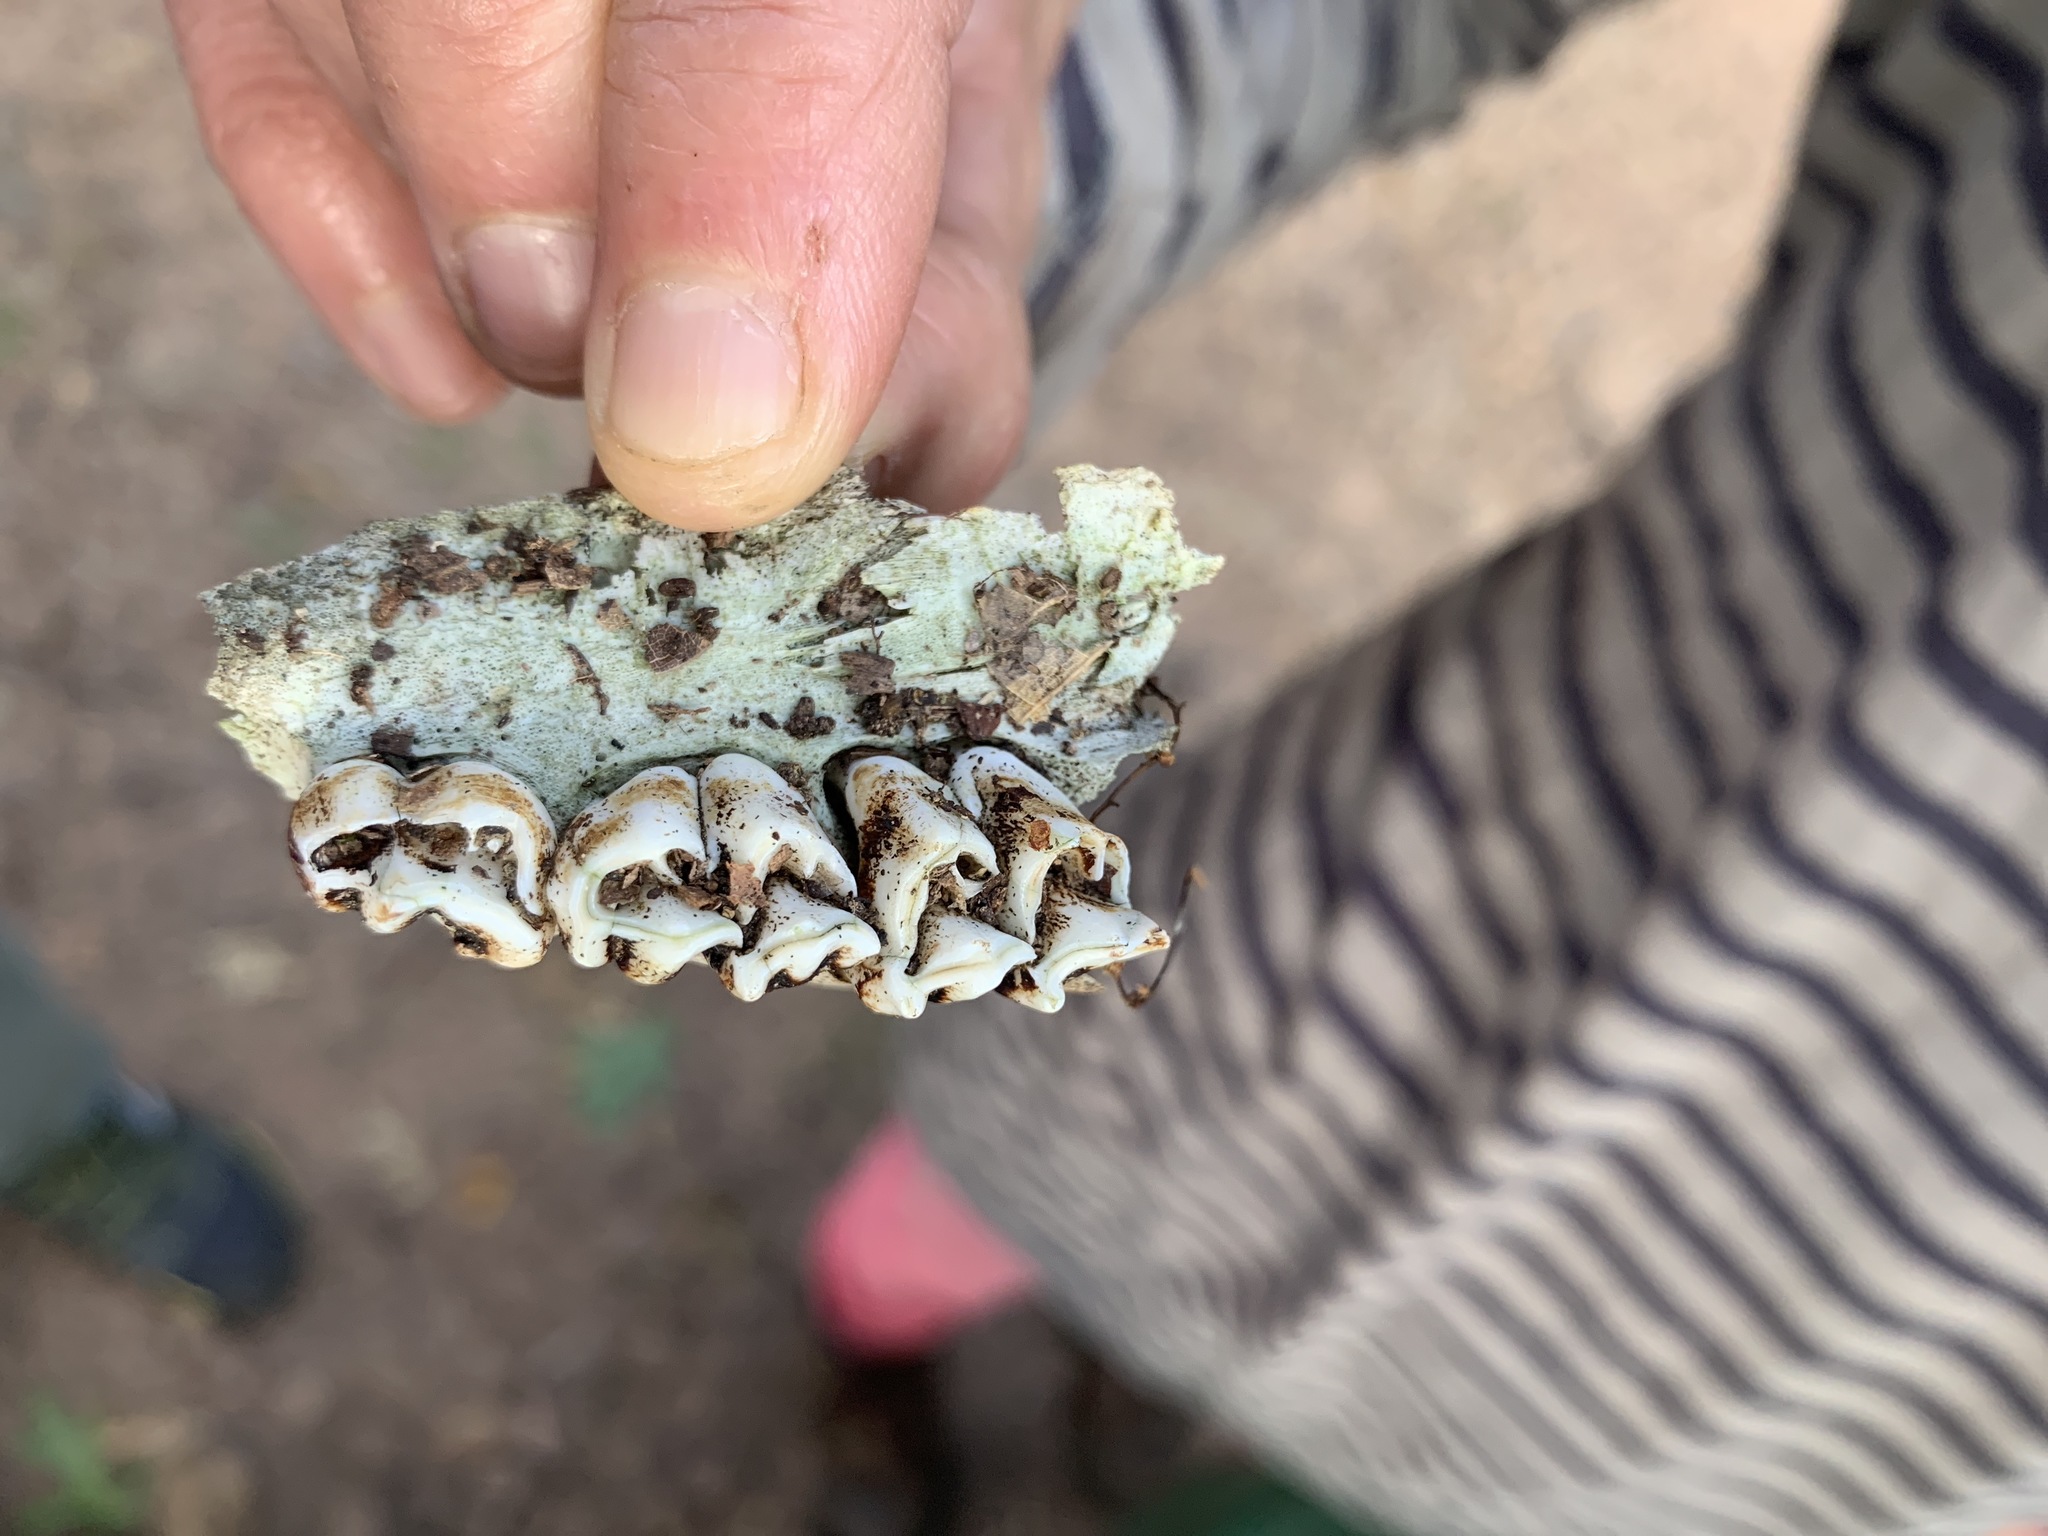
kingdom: Animalia
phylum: Chordata
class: Mammalia
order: Artiodactyla
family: Cervidae
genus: Odocoileus
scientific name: Odocoileus virginianus
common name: White-tailed deer
